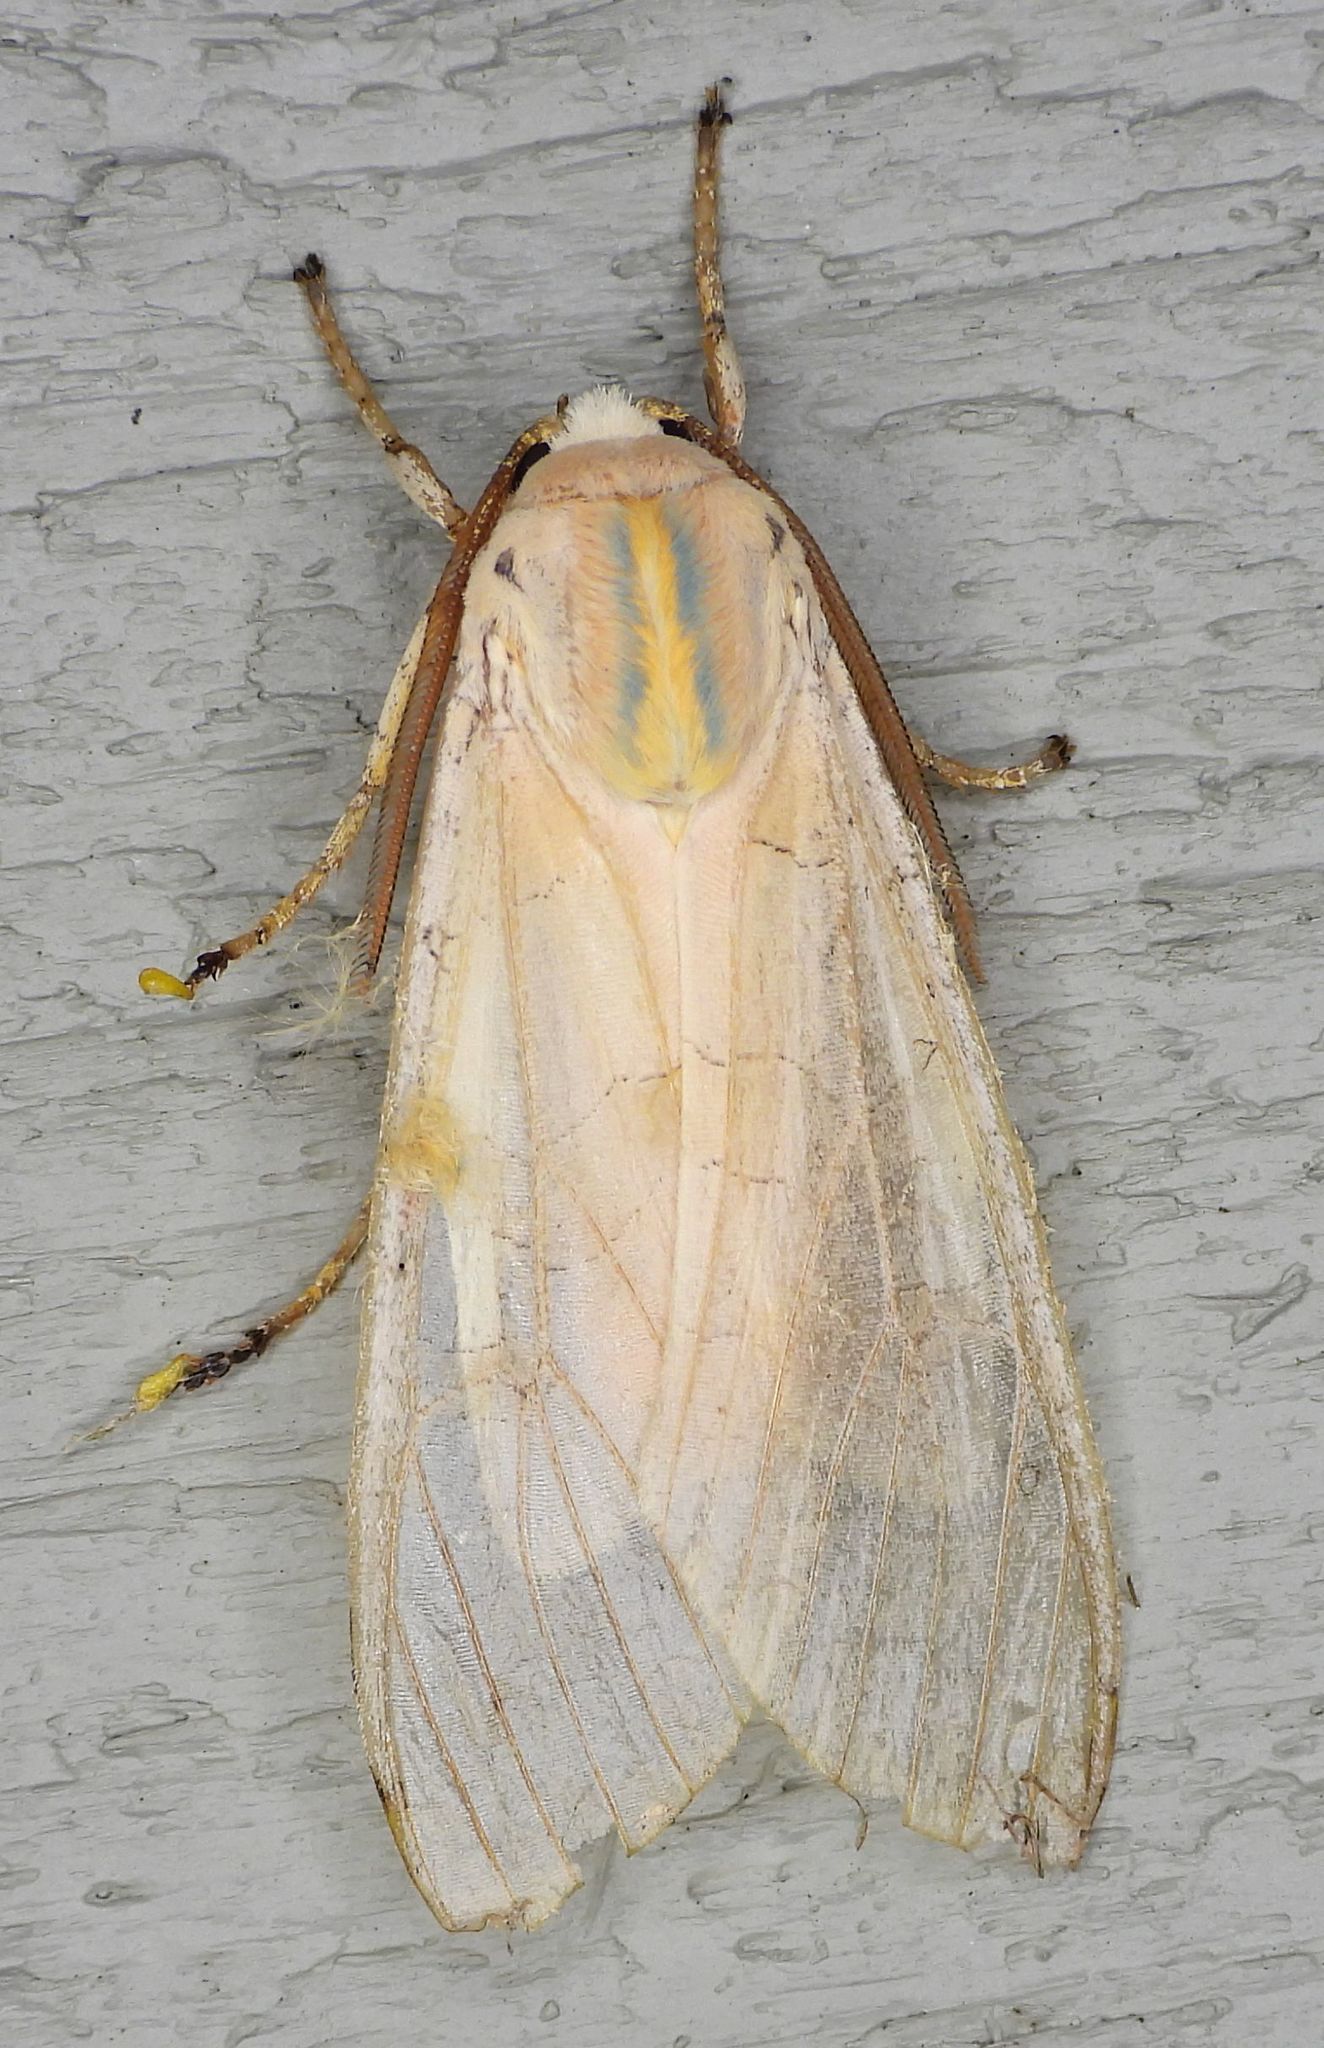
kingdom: Animalia
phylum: Arthropoda
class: Insecta
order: Lepidoptera
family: Erebidae
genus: Halysidota
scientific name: Halysidota tessellaris
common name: Banded tussock moth
